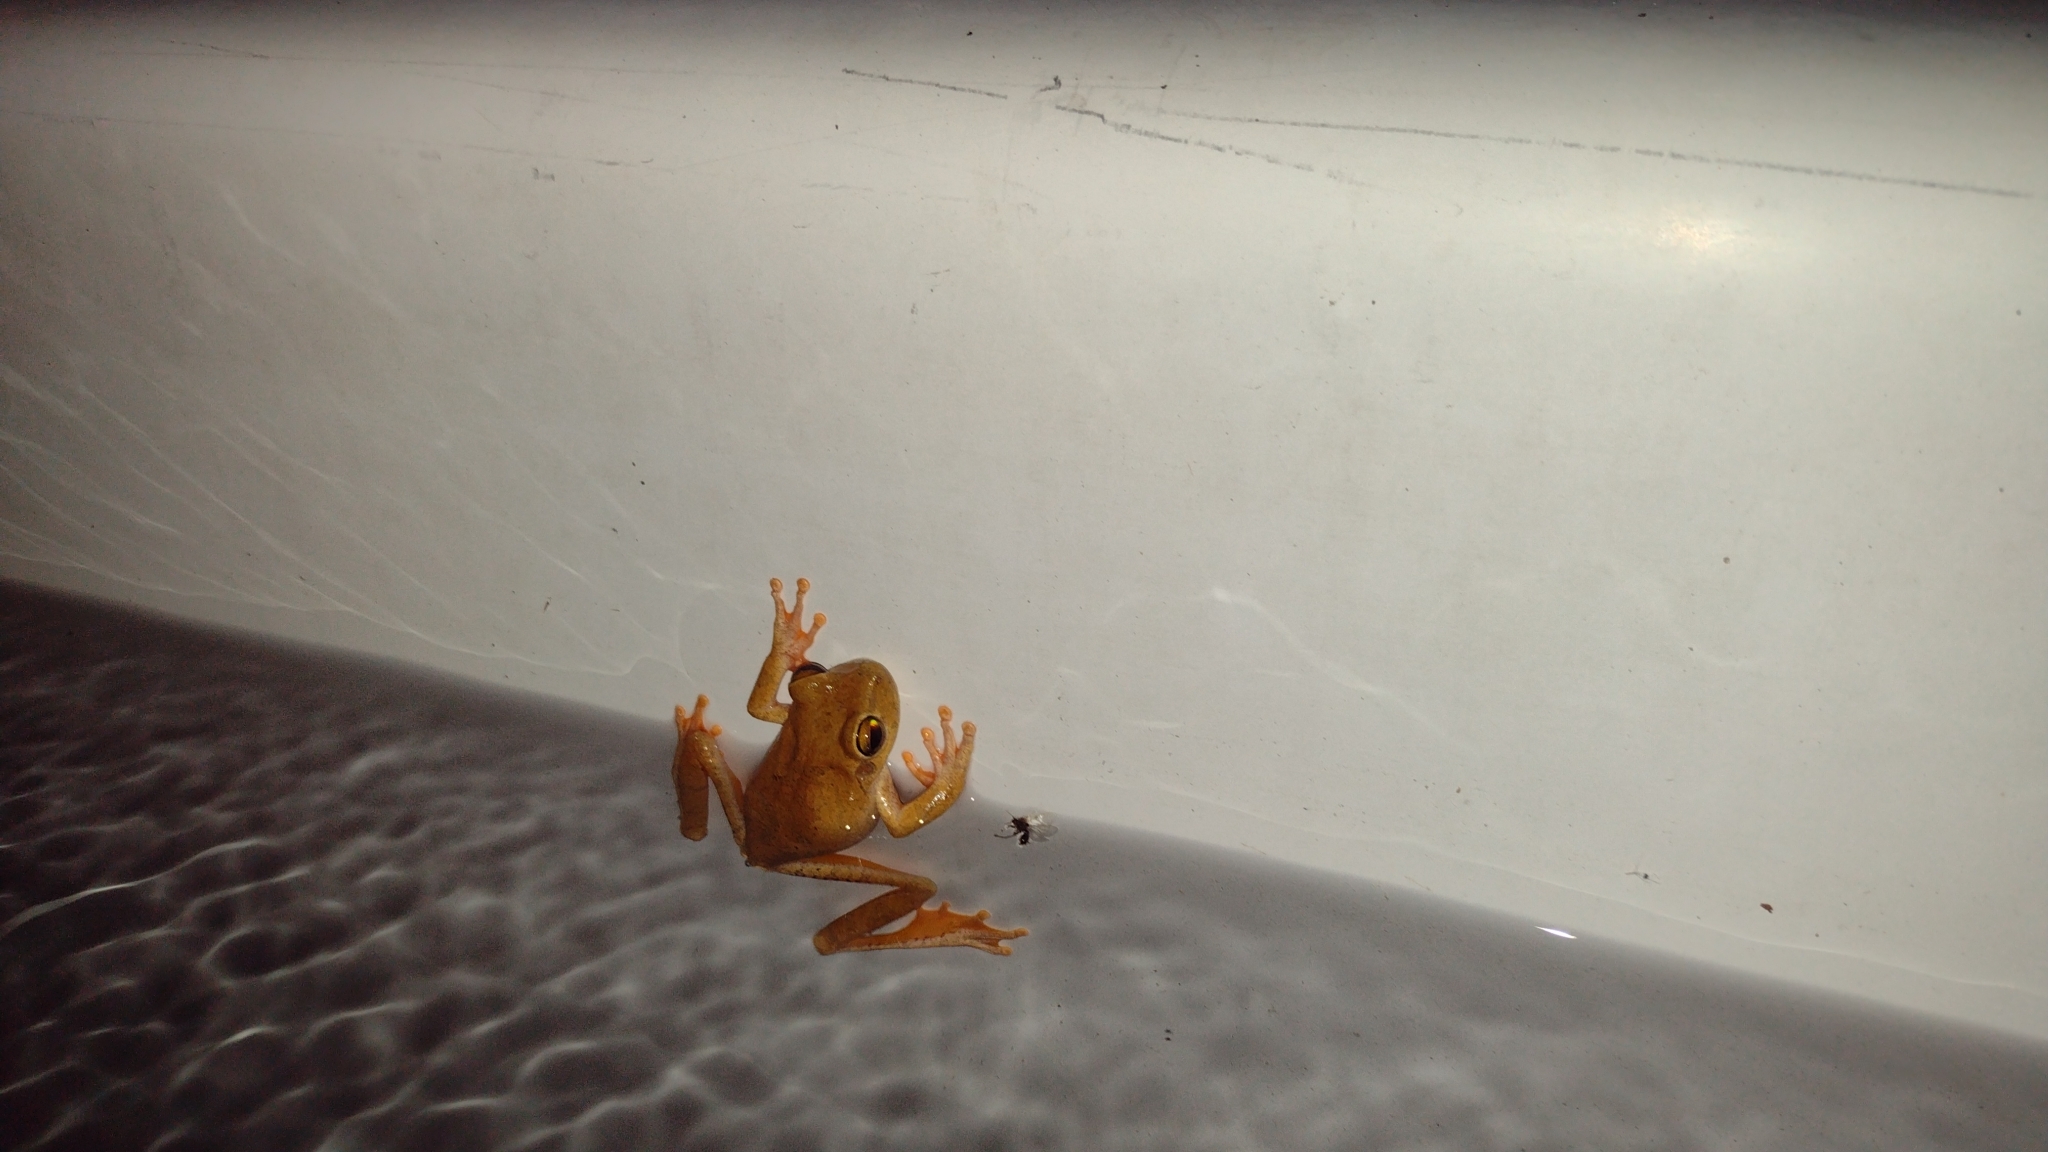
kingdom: Animalia
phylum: Chordata
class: Amphibia
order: Anura
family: Hylidae
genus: Boana
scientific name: Boana crepitans
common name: Emerald-eyed treefrog
